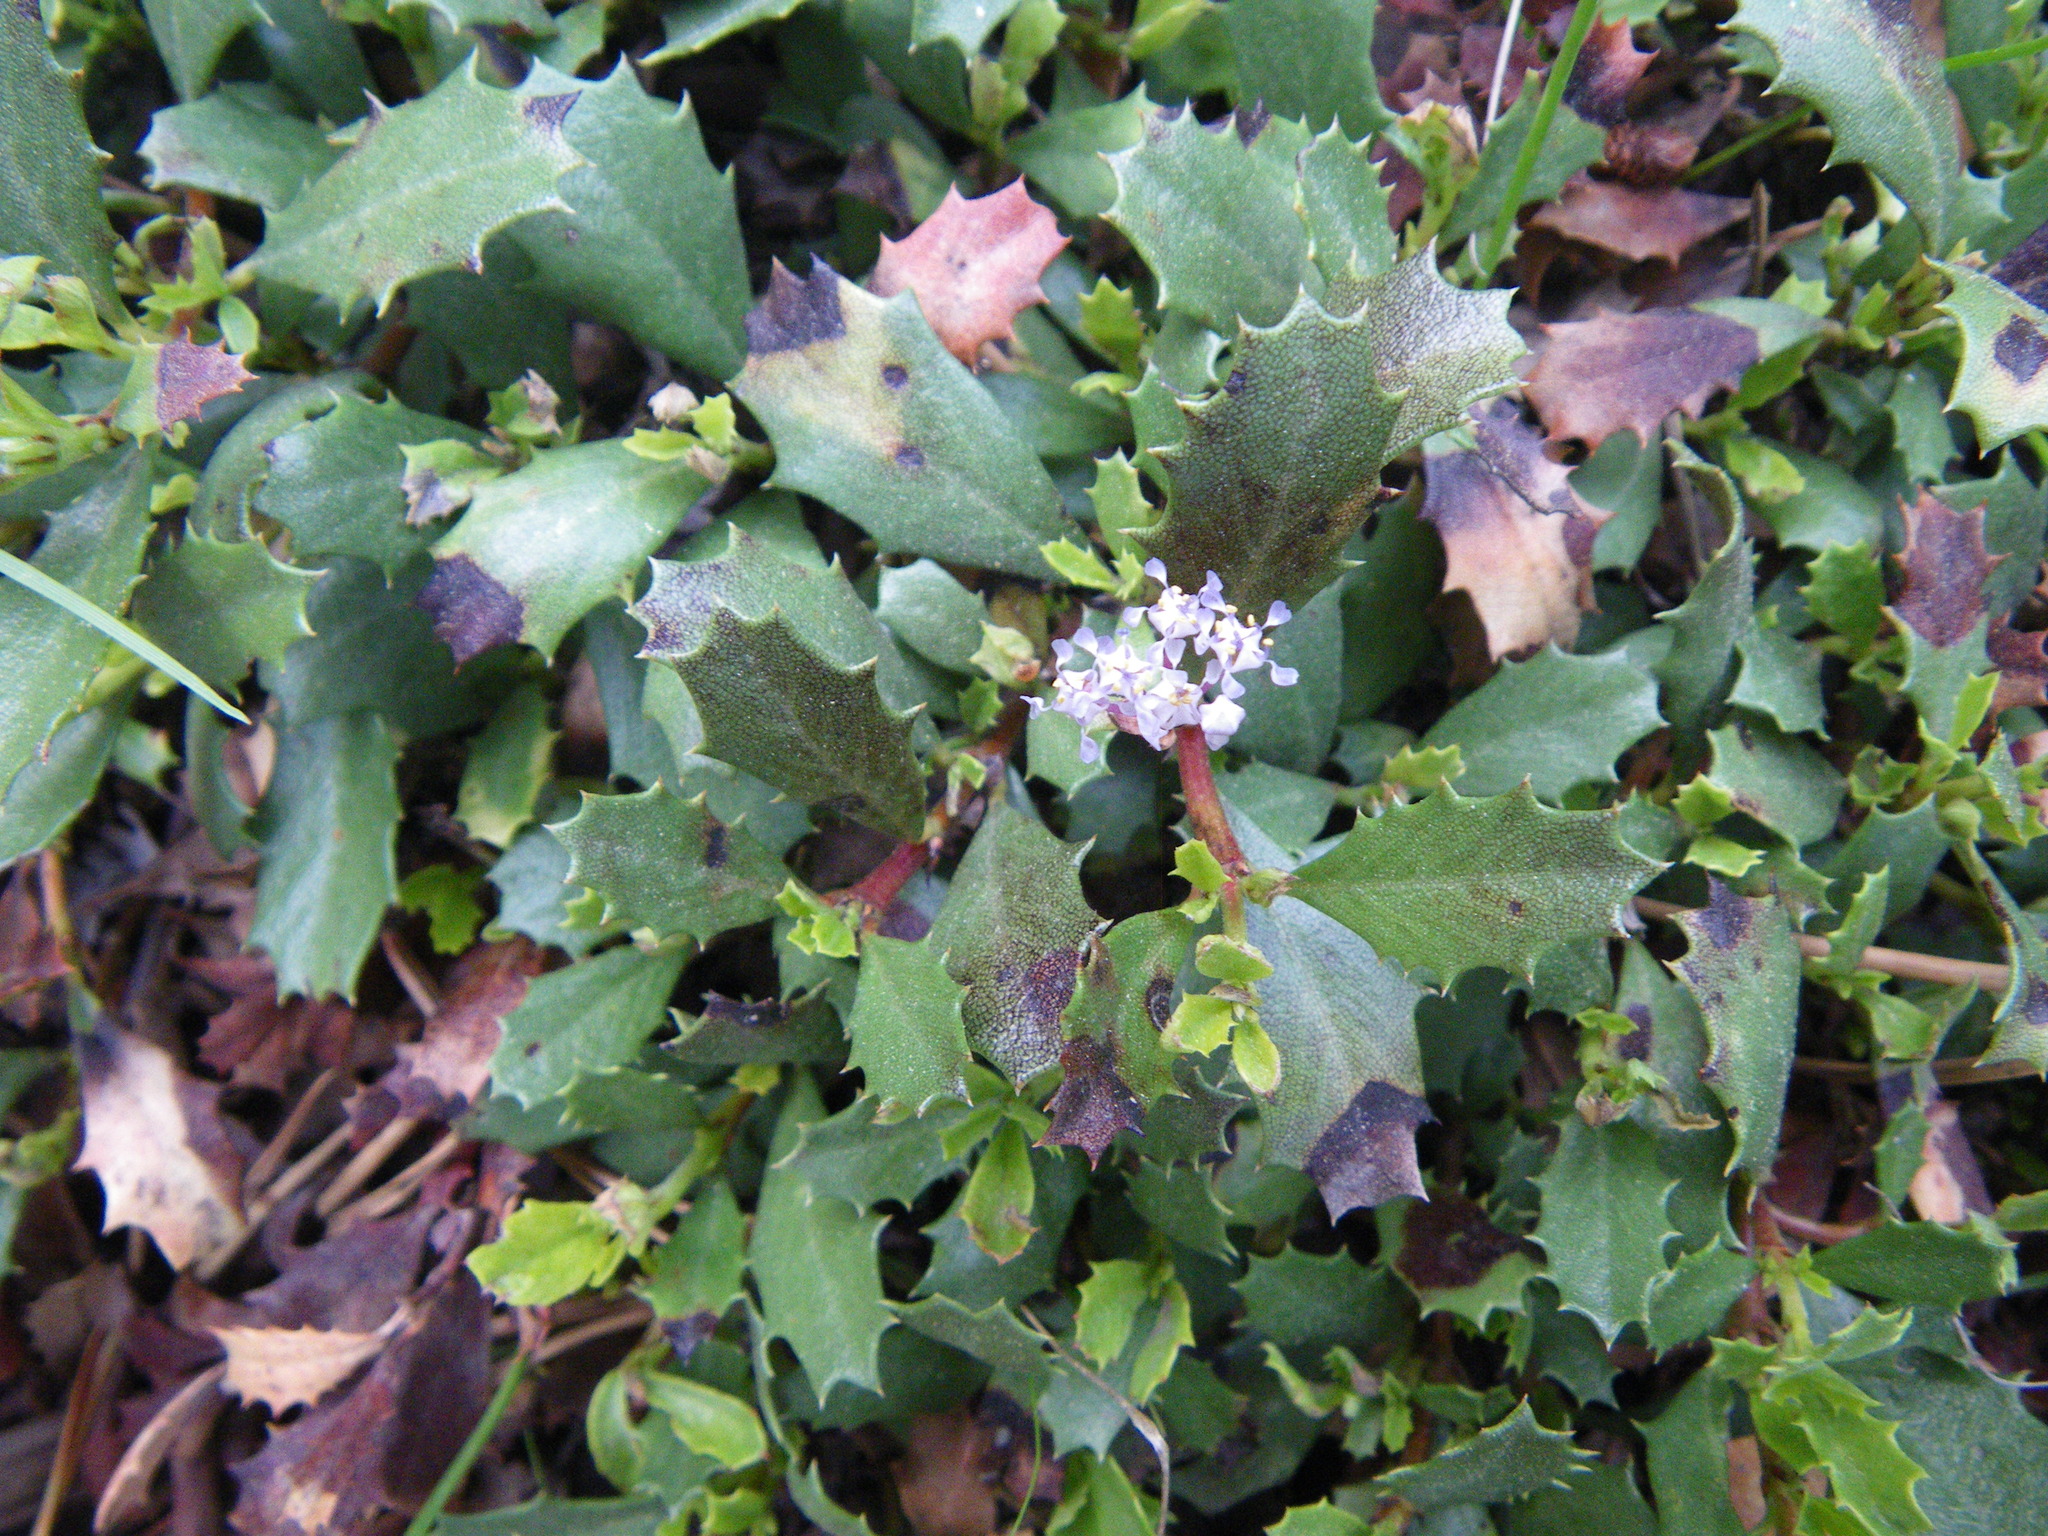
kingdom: Plantae
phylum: Tracheophyta
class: Magnoliopsida
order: Rosales
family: Rhamnaceae
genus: Ceanothus
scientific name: Ceanothus prostratus
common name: Mahala-mat
